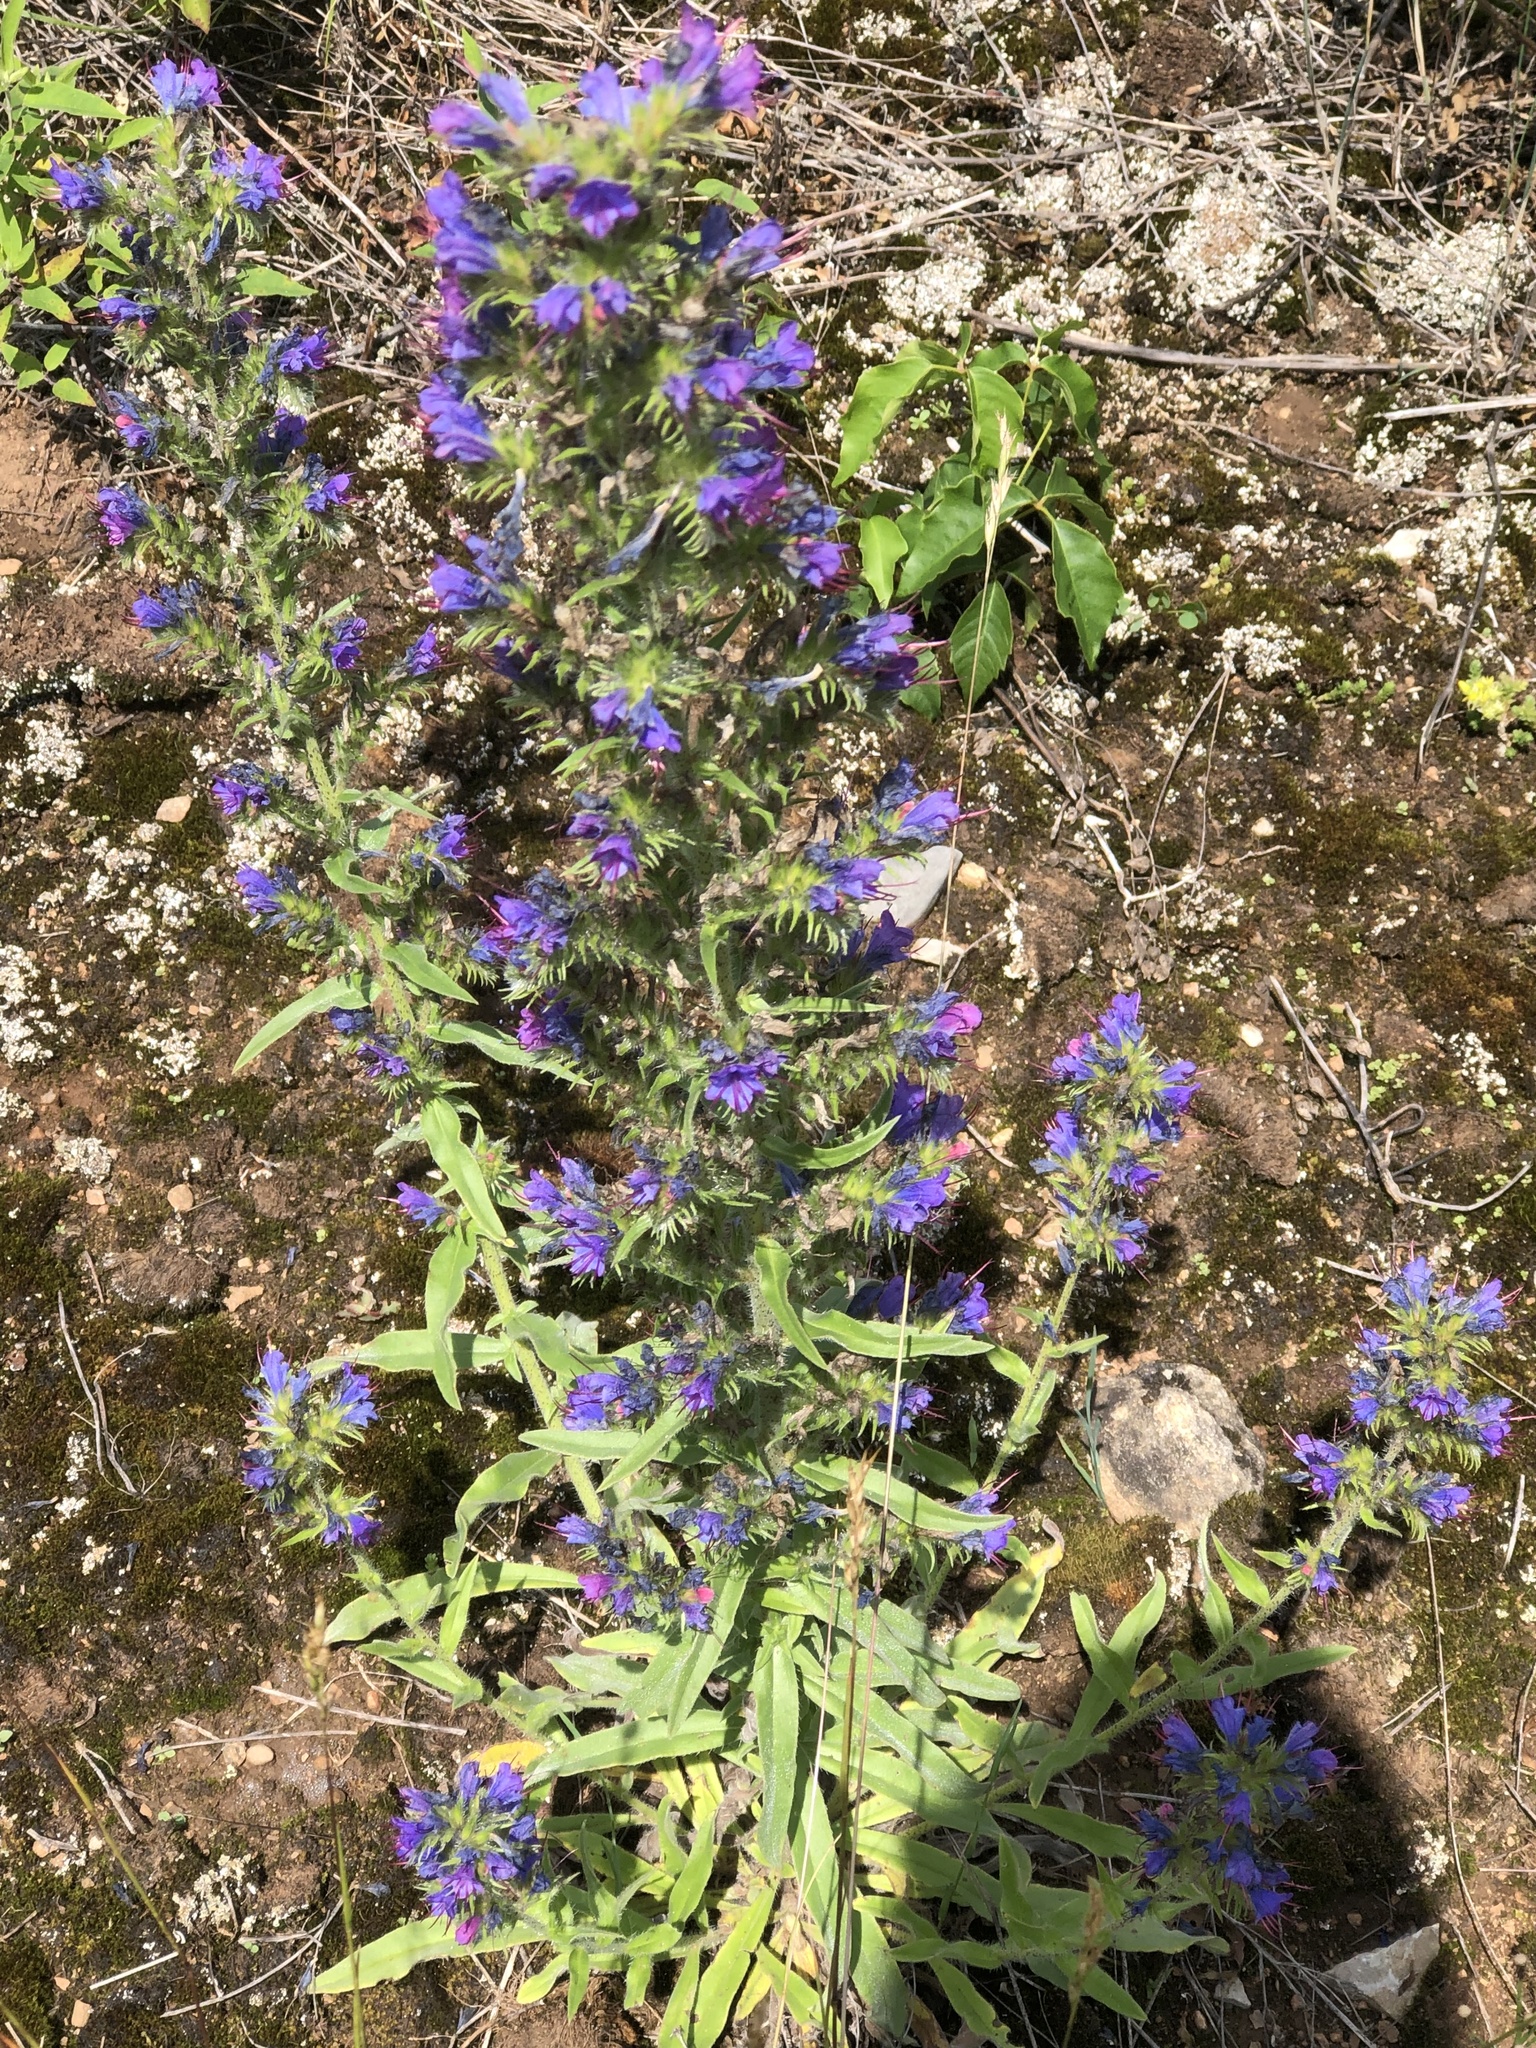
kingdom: Plantae
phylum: Tracheophyta
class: Magnoliopsida
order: Boraginales
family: Boraginaceae
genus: Echium
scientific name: Echium vulgare
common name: Common viper's bugloss
